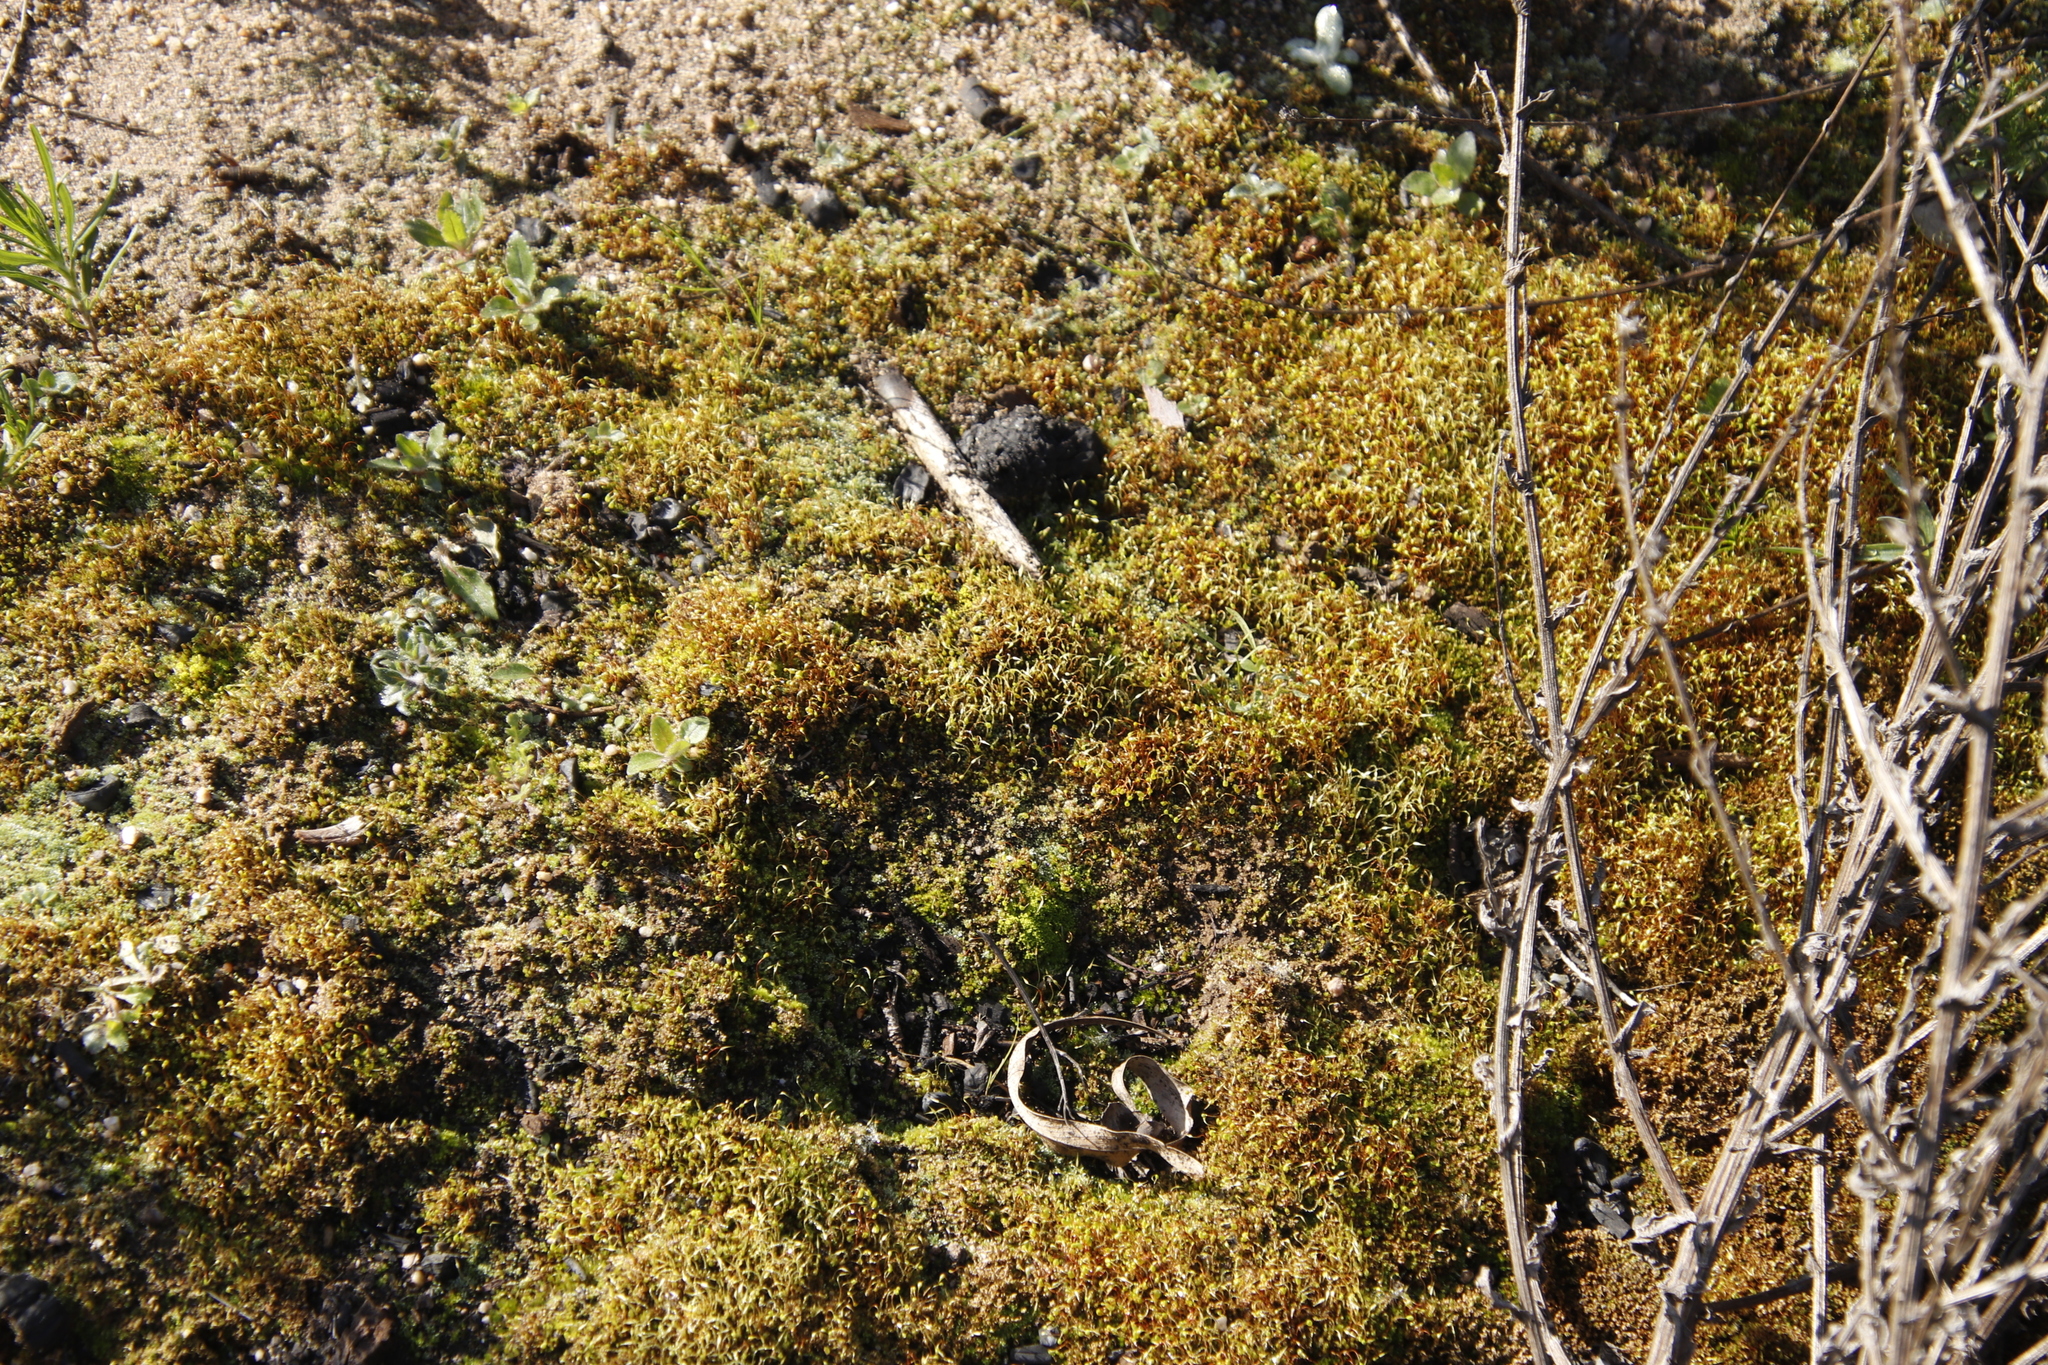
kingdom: Plantae
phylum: Bryophyta
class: Bryopsida
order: Funariales
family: Funariaceae
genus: Funaria
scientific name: Funaria hygrometrica
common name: Common cord moss
